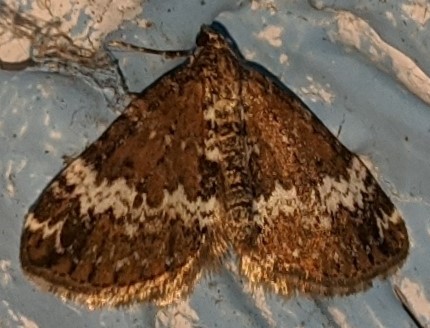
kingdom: Animalia
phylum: Arthropoda
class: Insecta
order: Lepidoptera
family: Geometridae
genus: Perizoma
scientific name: Perizoma alchemillata
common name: Small rivulet
